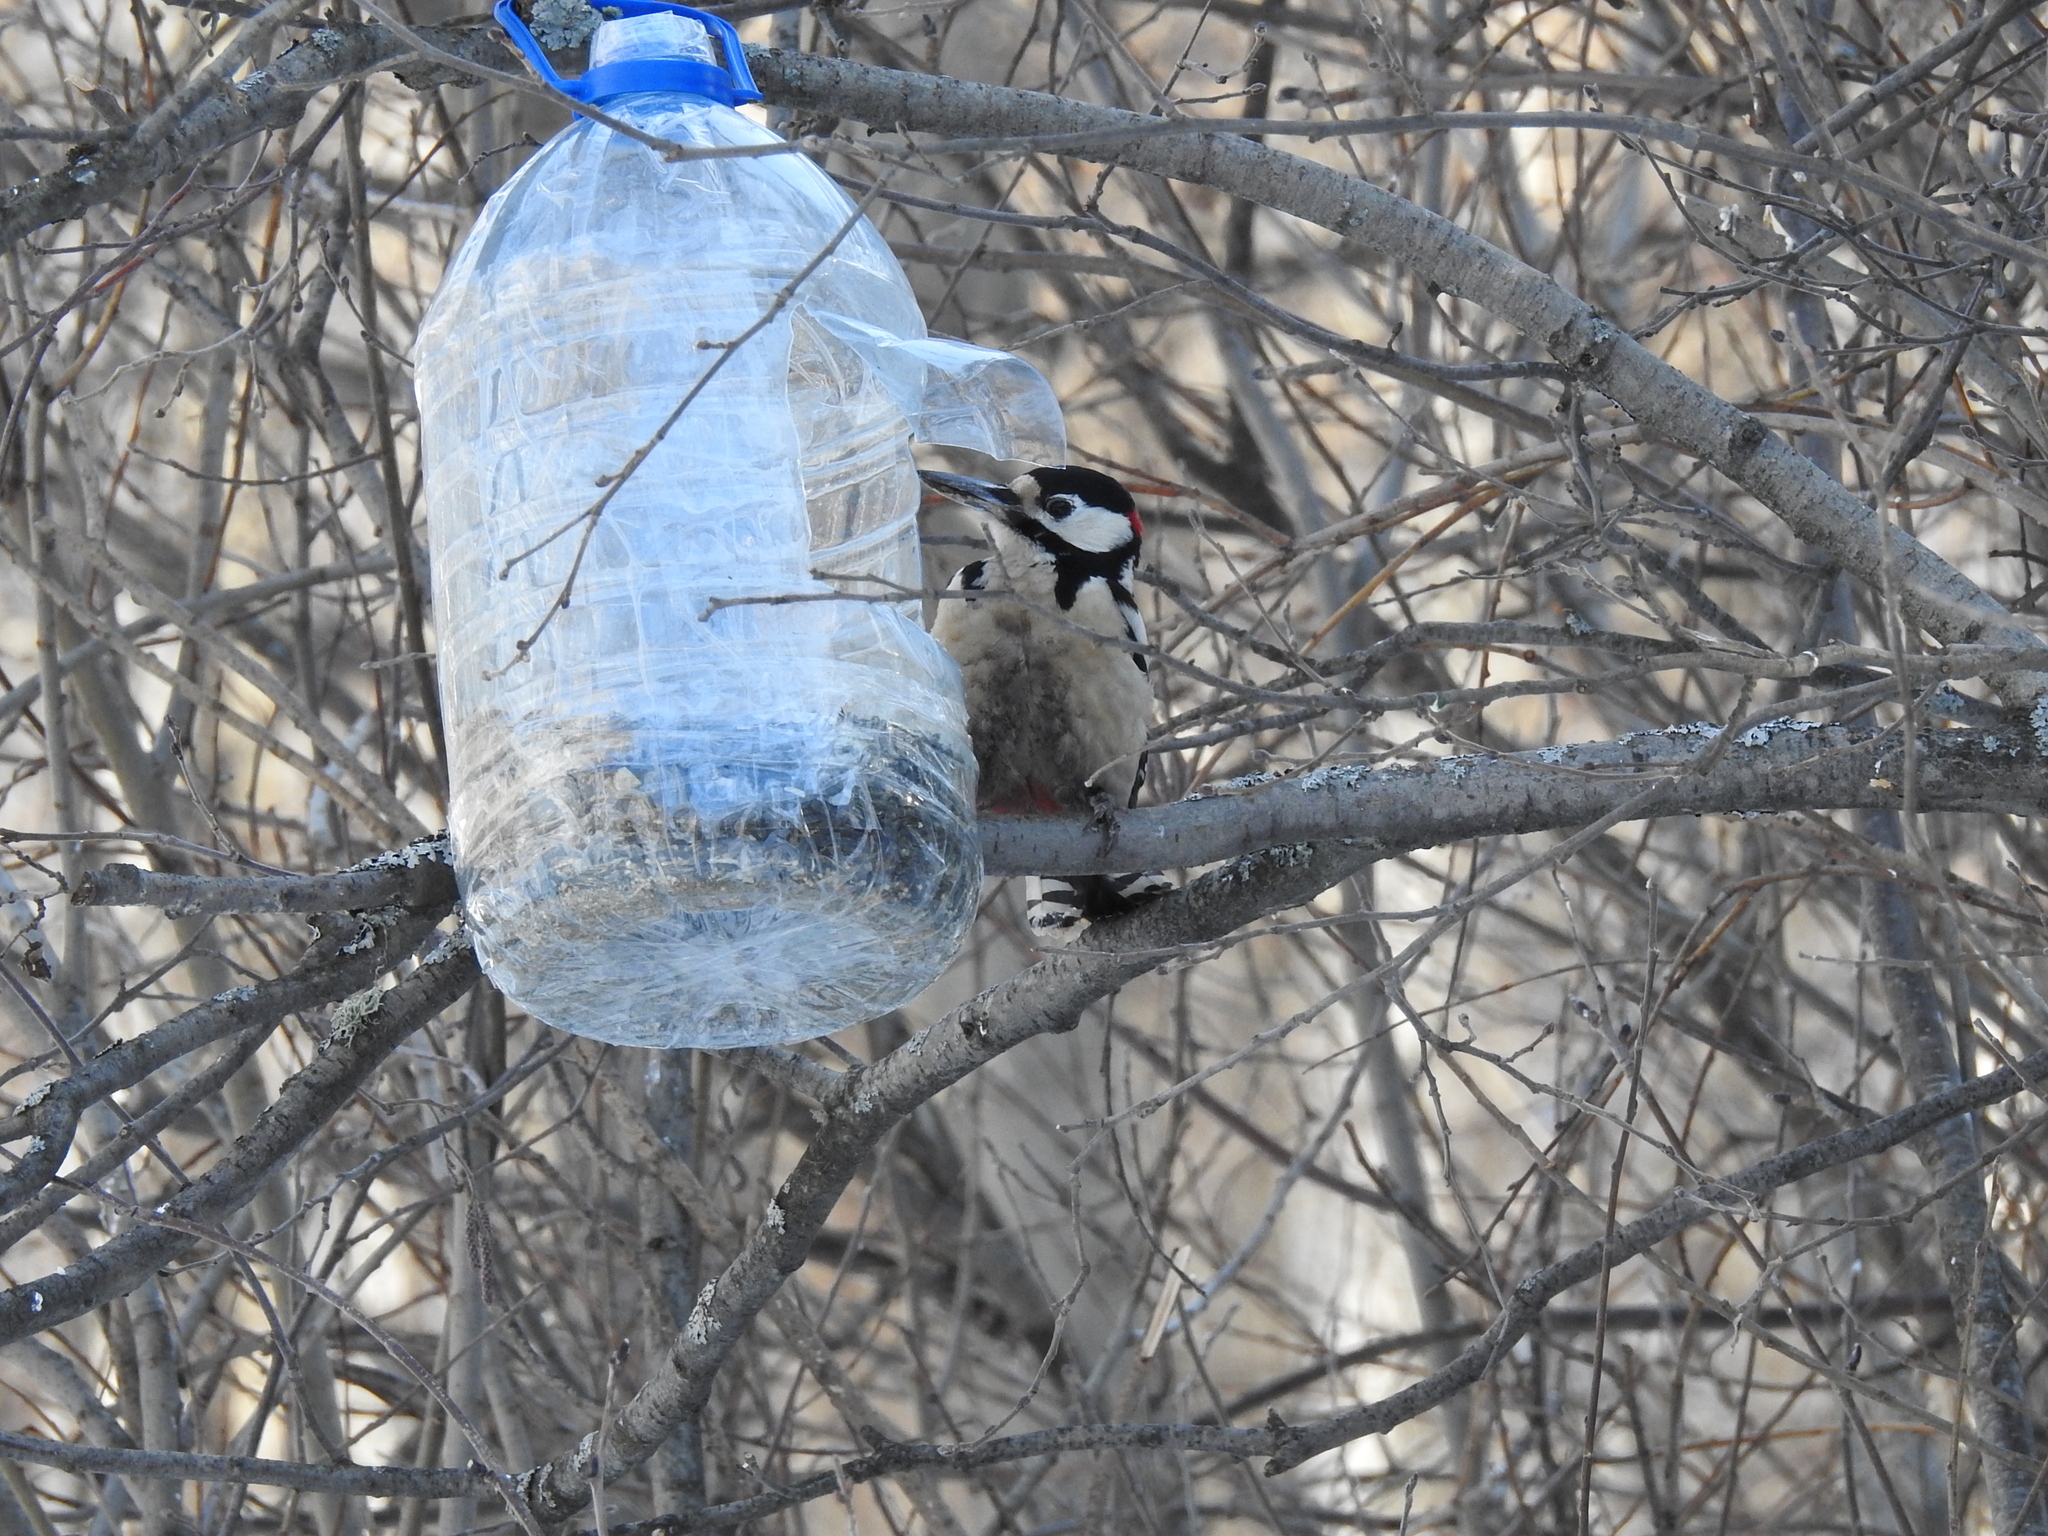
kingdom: Animalia
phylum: Chordata
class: Aves
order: Piciformes
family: Picidae
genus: Dendrocopos
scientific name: Dendrocopos major
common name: Great spotted woodpecker
